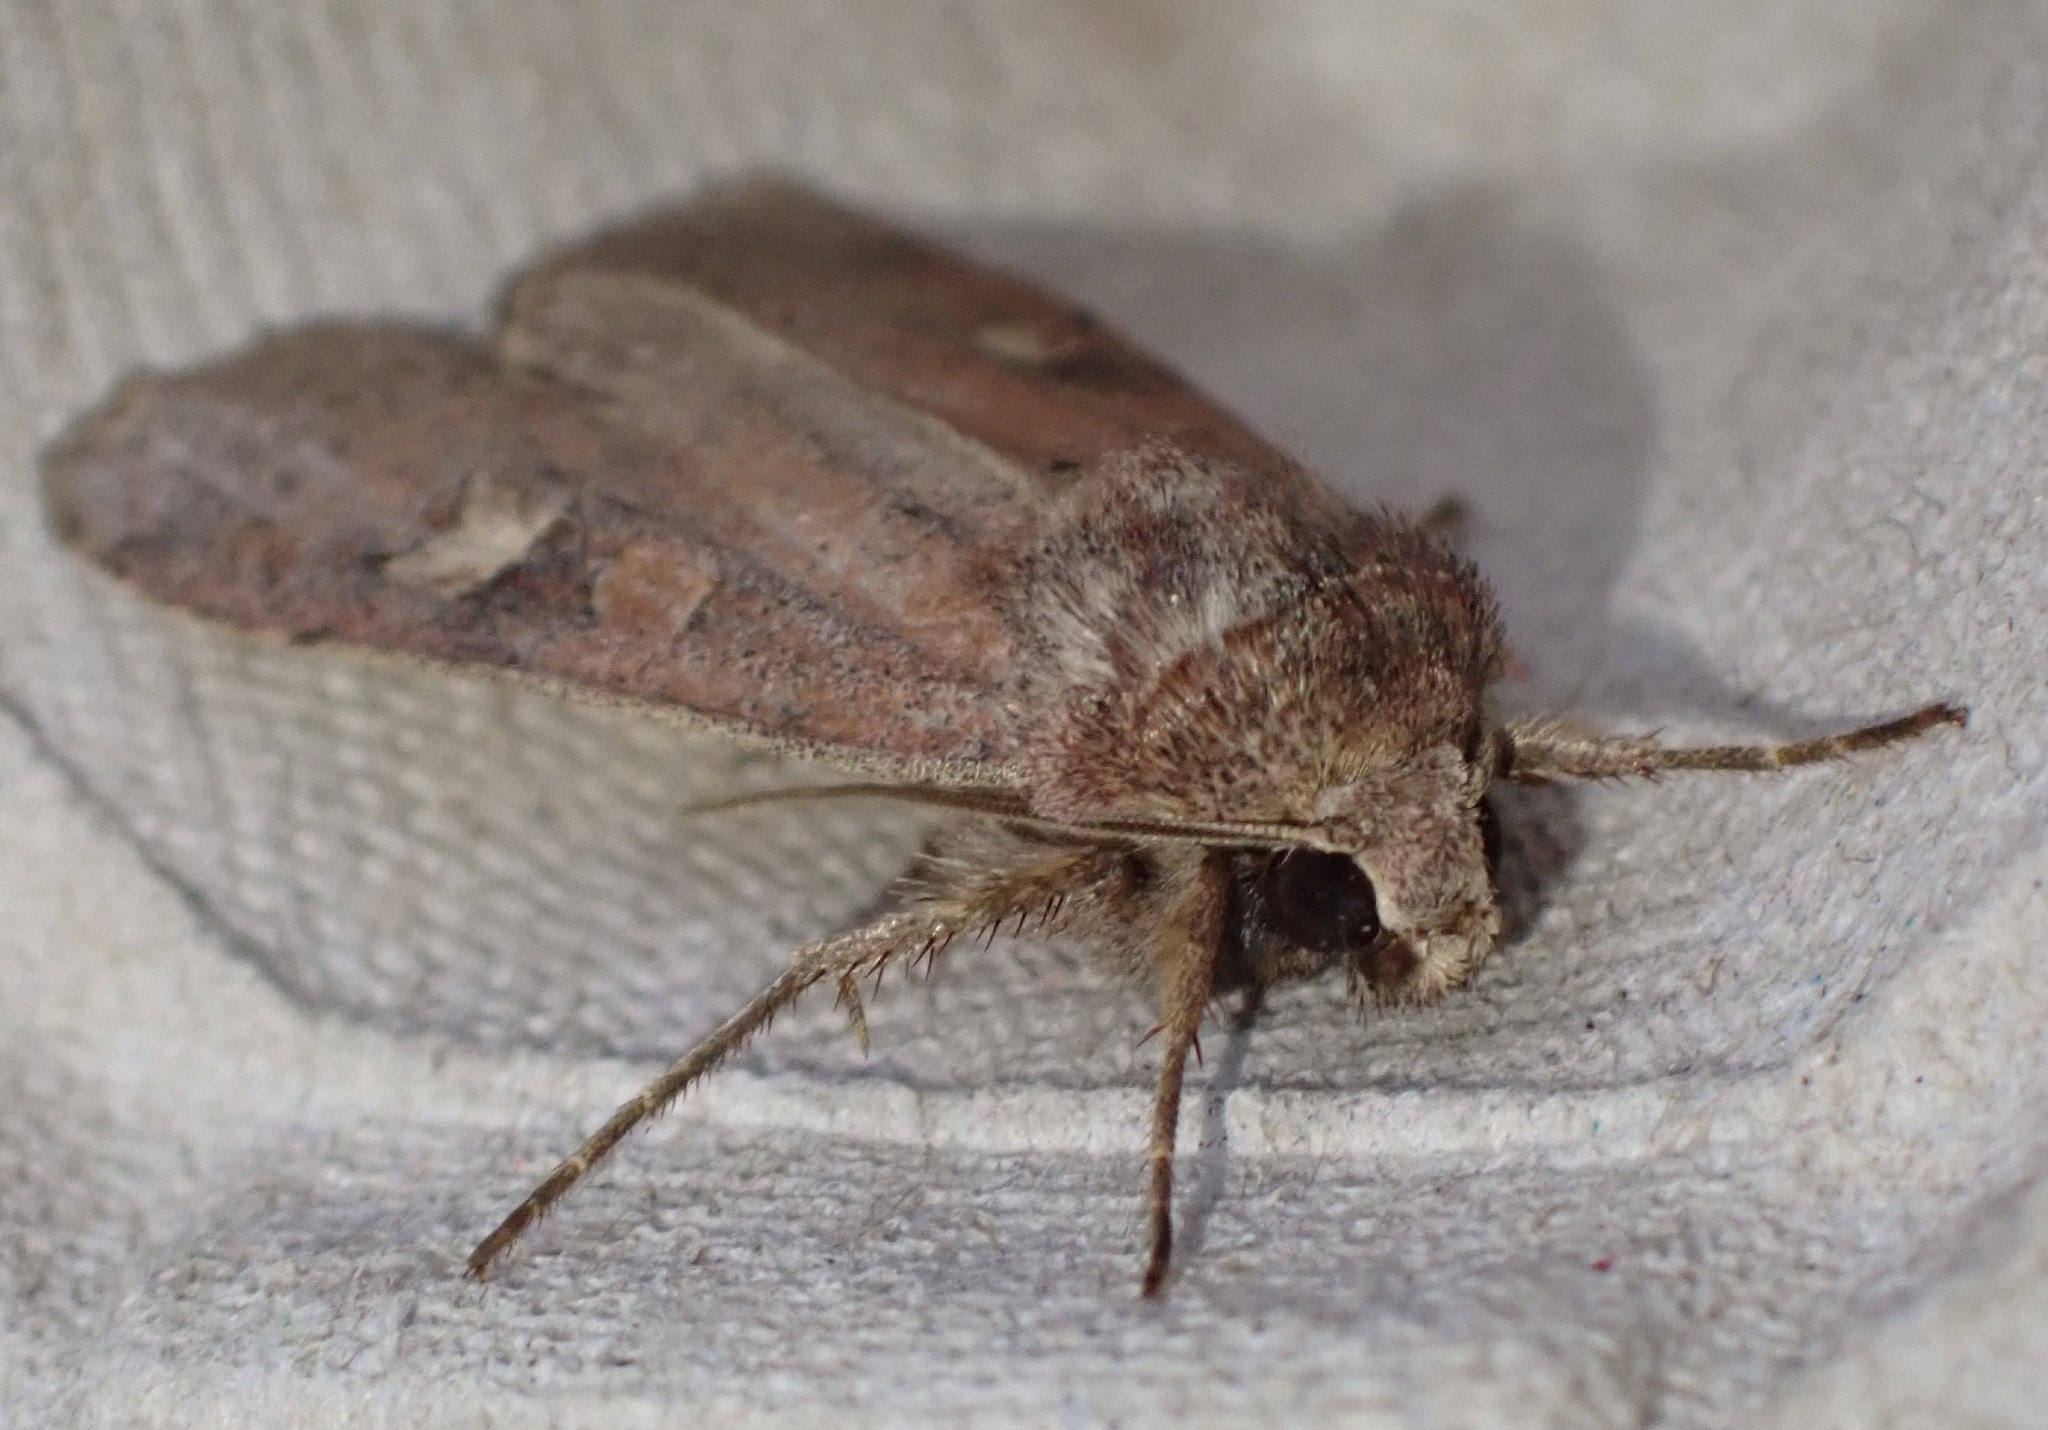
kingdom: Animalia
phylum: Arthropoda
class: Insecta
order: Lepidoptera
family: Noctuidae
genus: Xestia
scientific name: Xestia xanthographa
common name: Square-spot rustic
